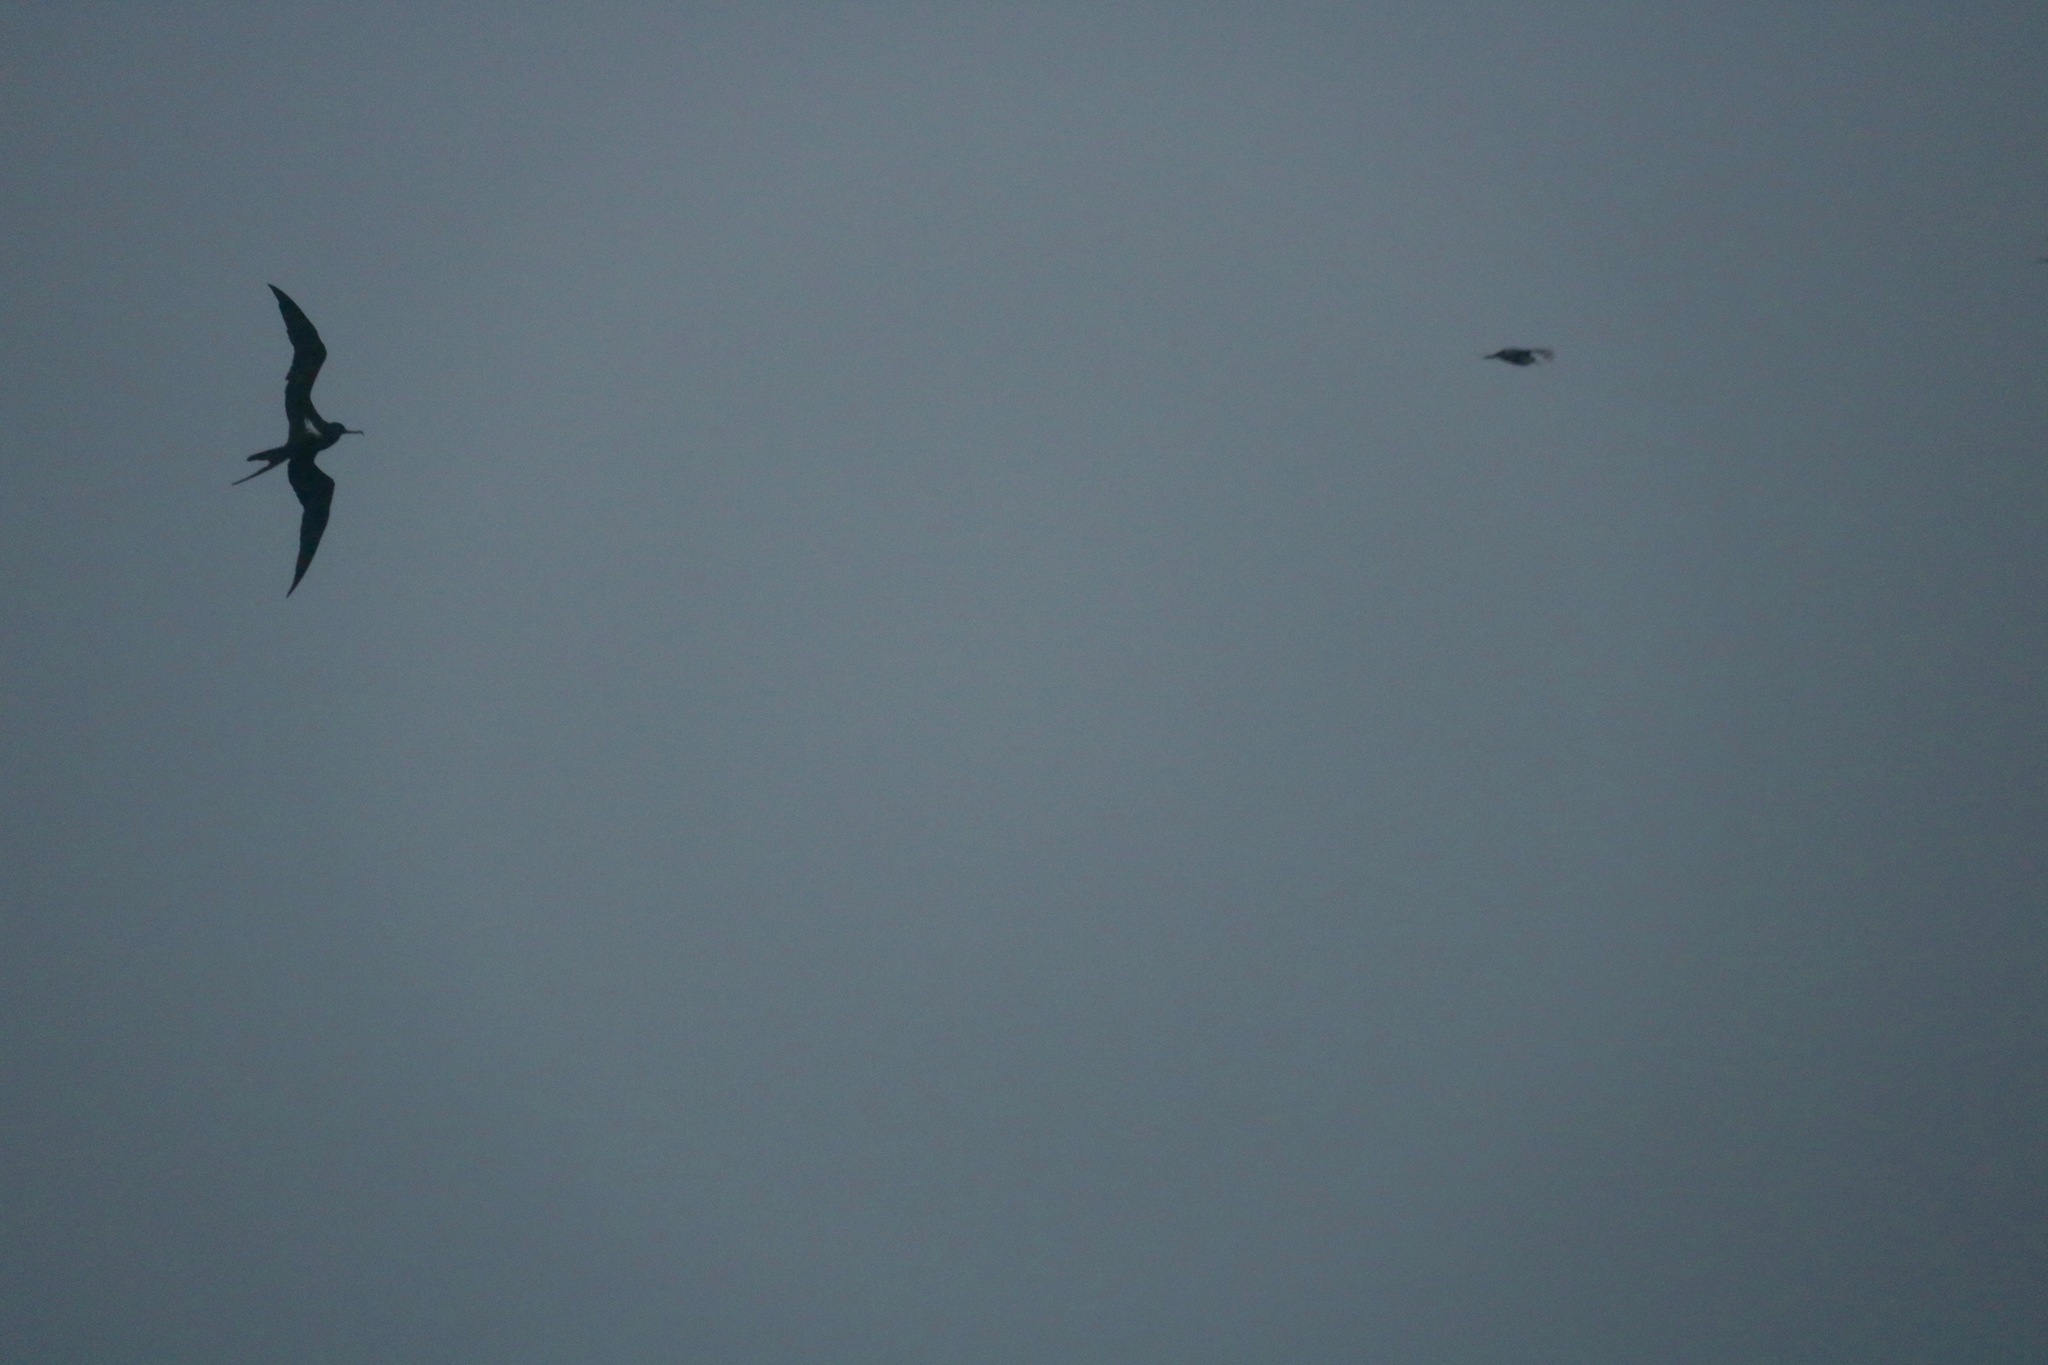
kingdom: Animalia
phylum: Chordata
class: Aves
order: Suliformes
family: Fregatidae
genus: Fregata
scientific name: Fregata ariel
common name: Lesser frigatebird
